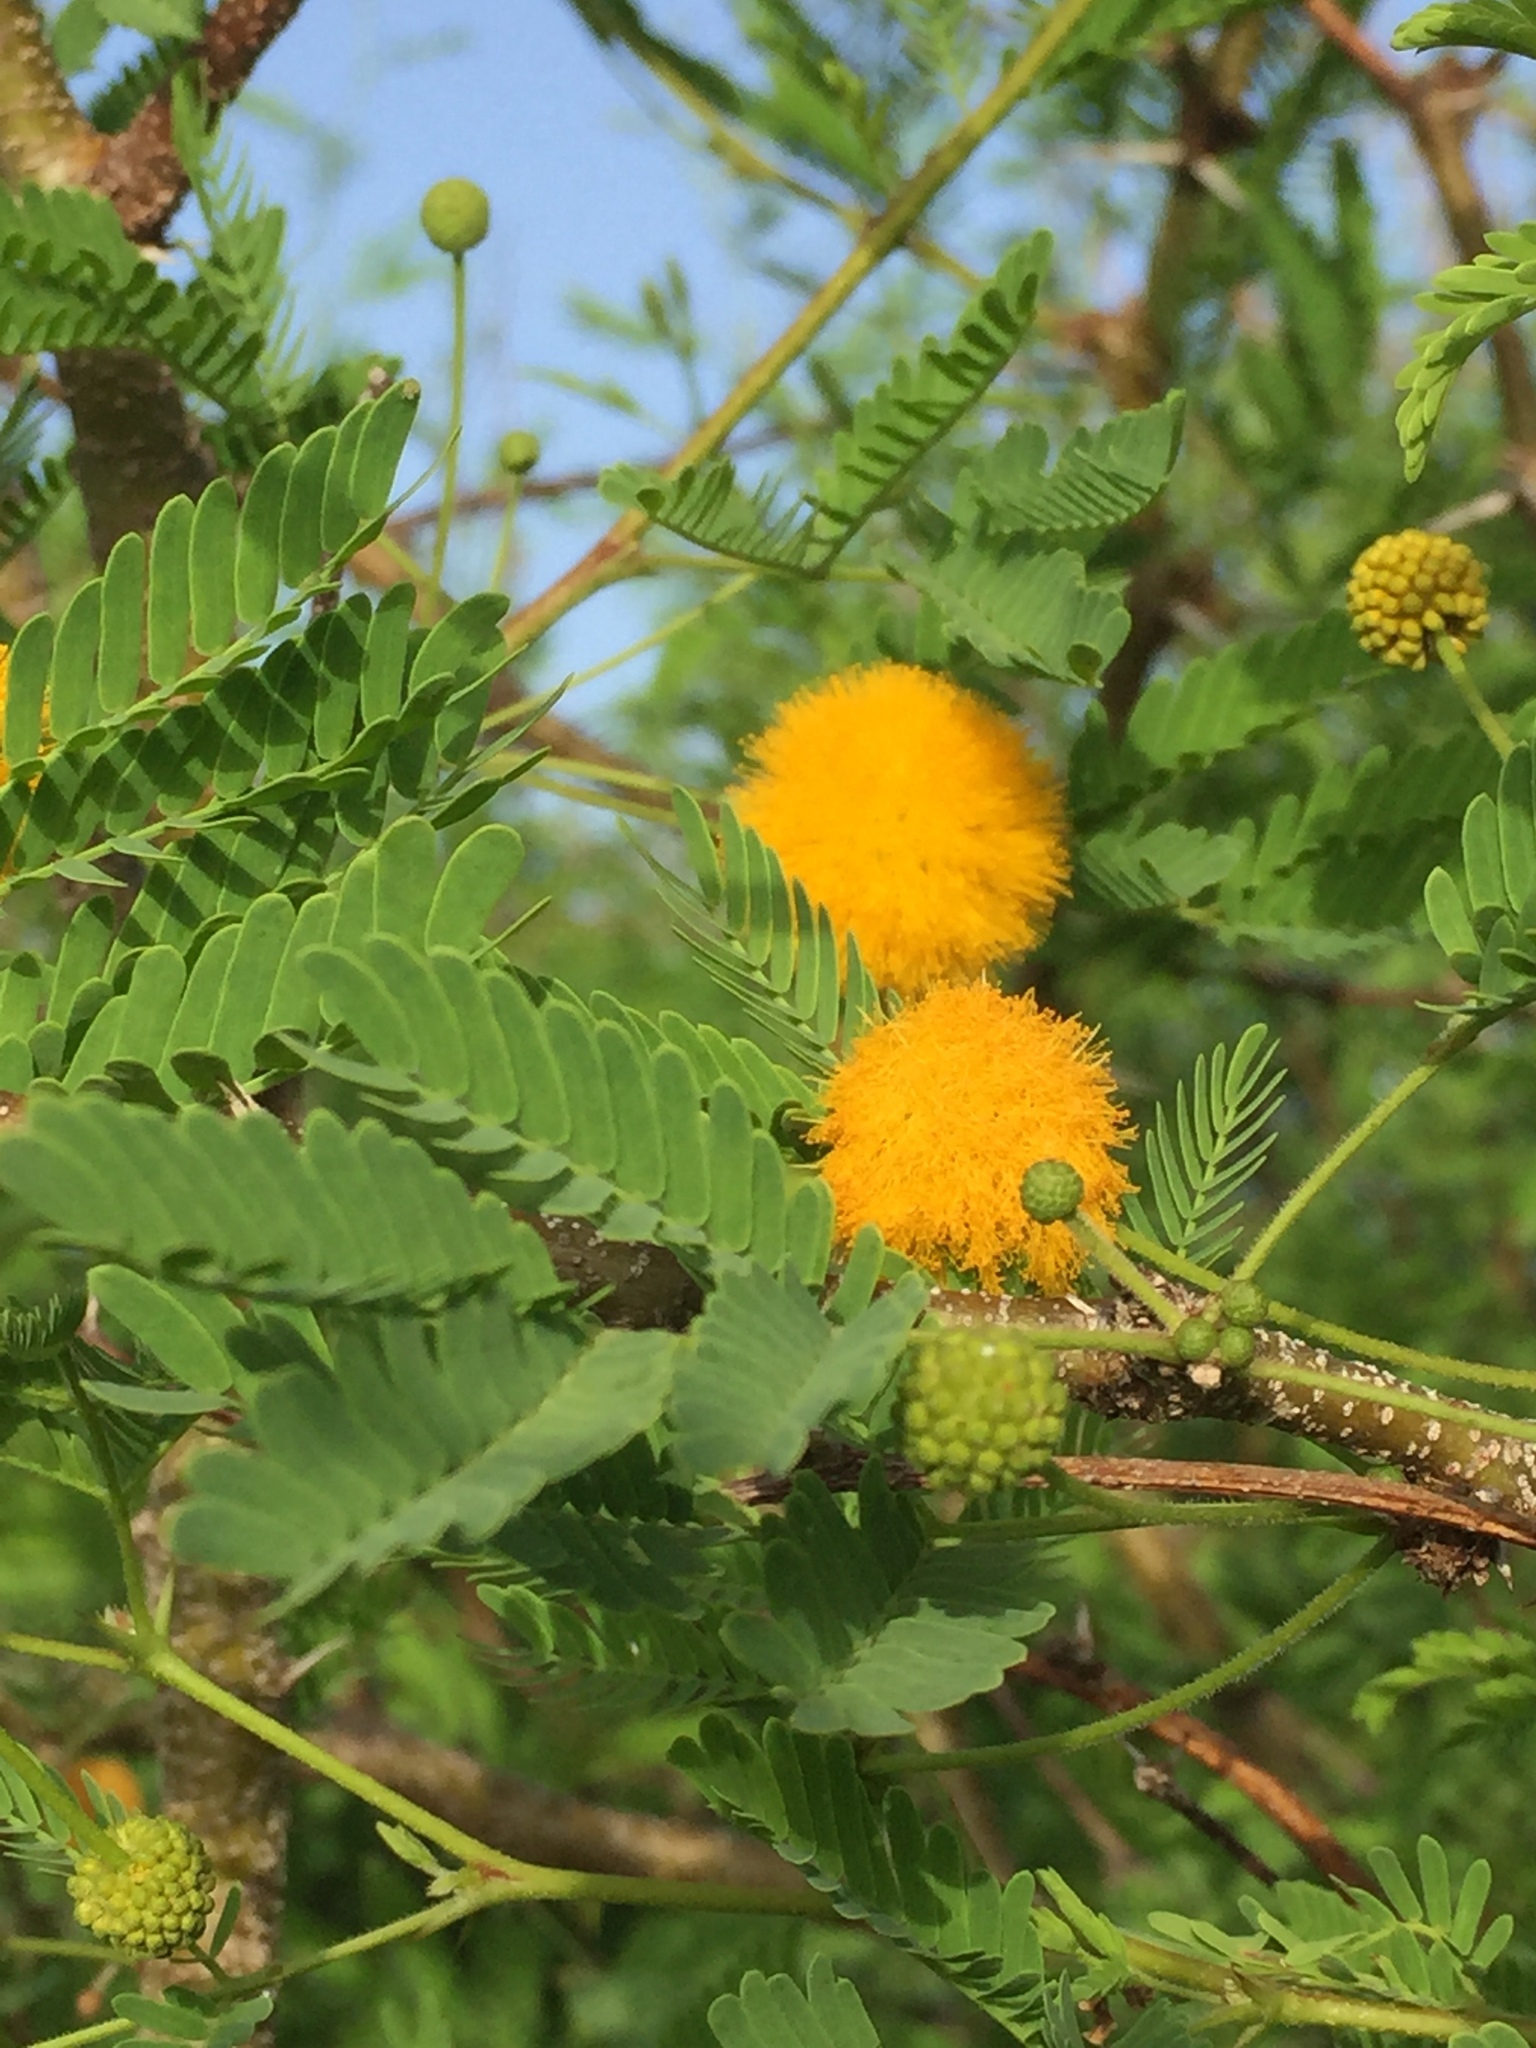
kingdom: Plantae
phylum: Tracheophyta
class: Magnoliopsida
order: Fabales
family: Fabaceae
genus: Vachellia
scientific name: Vachellia nilotica
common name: Arabic gumtree
